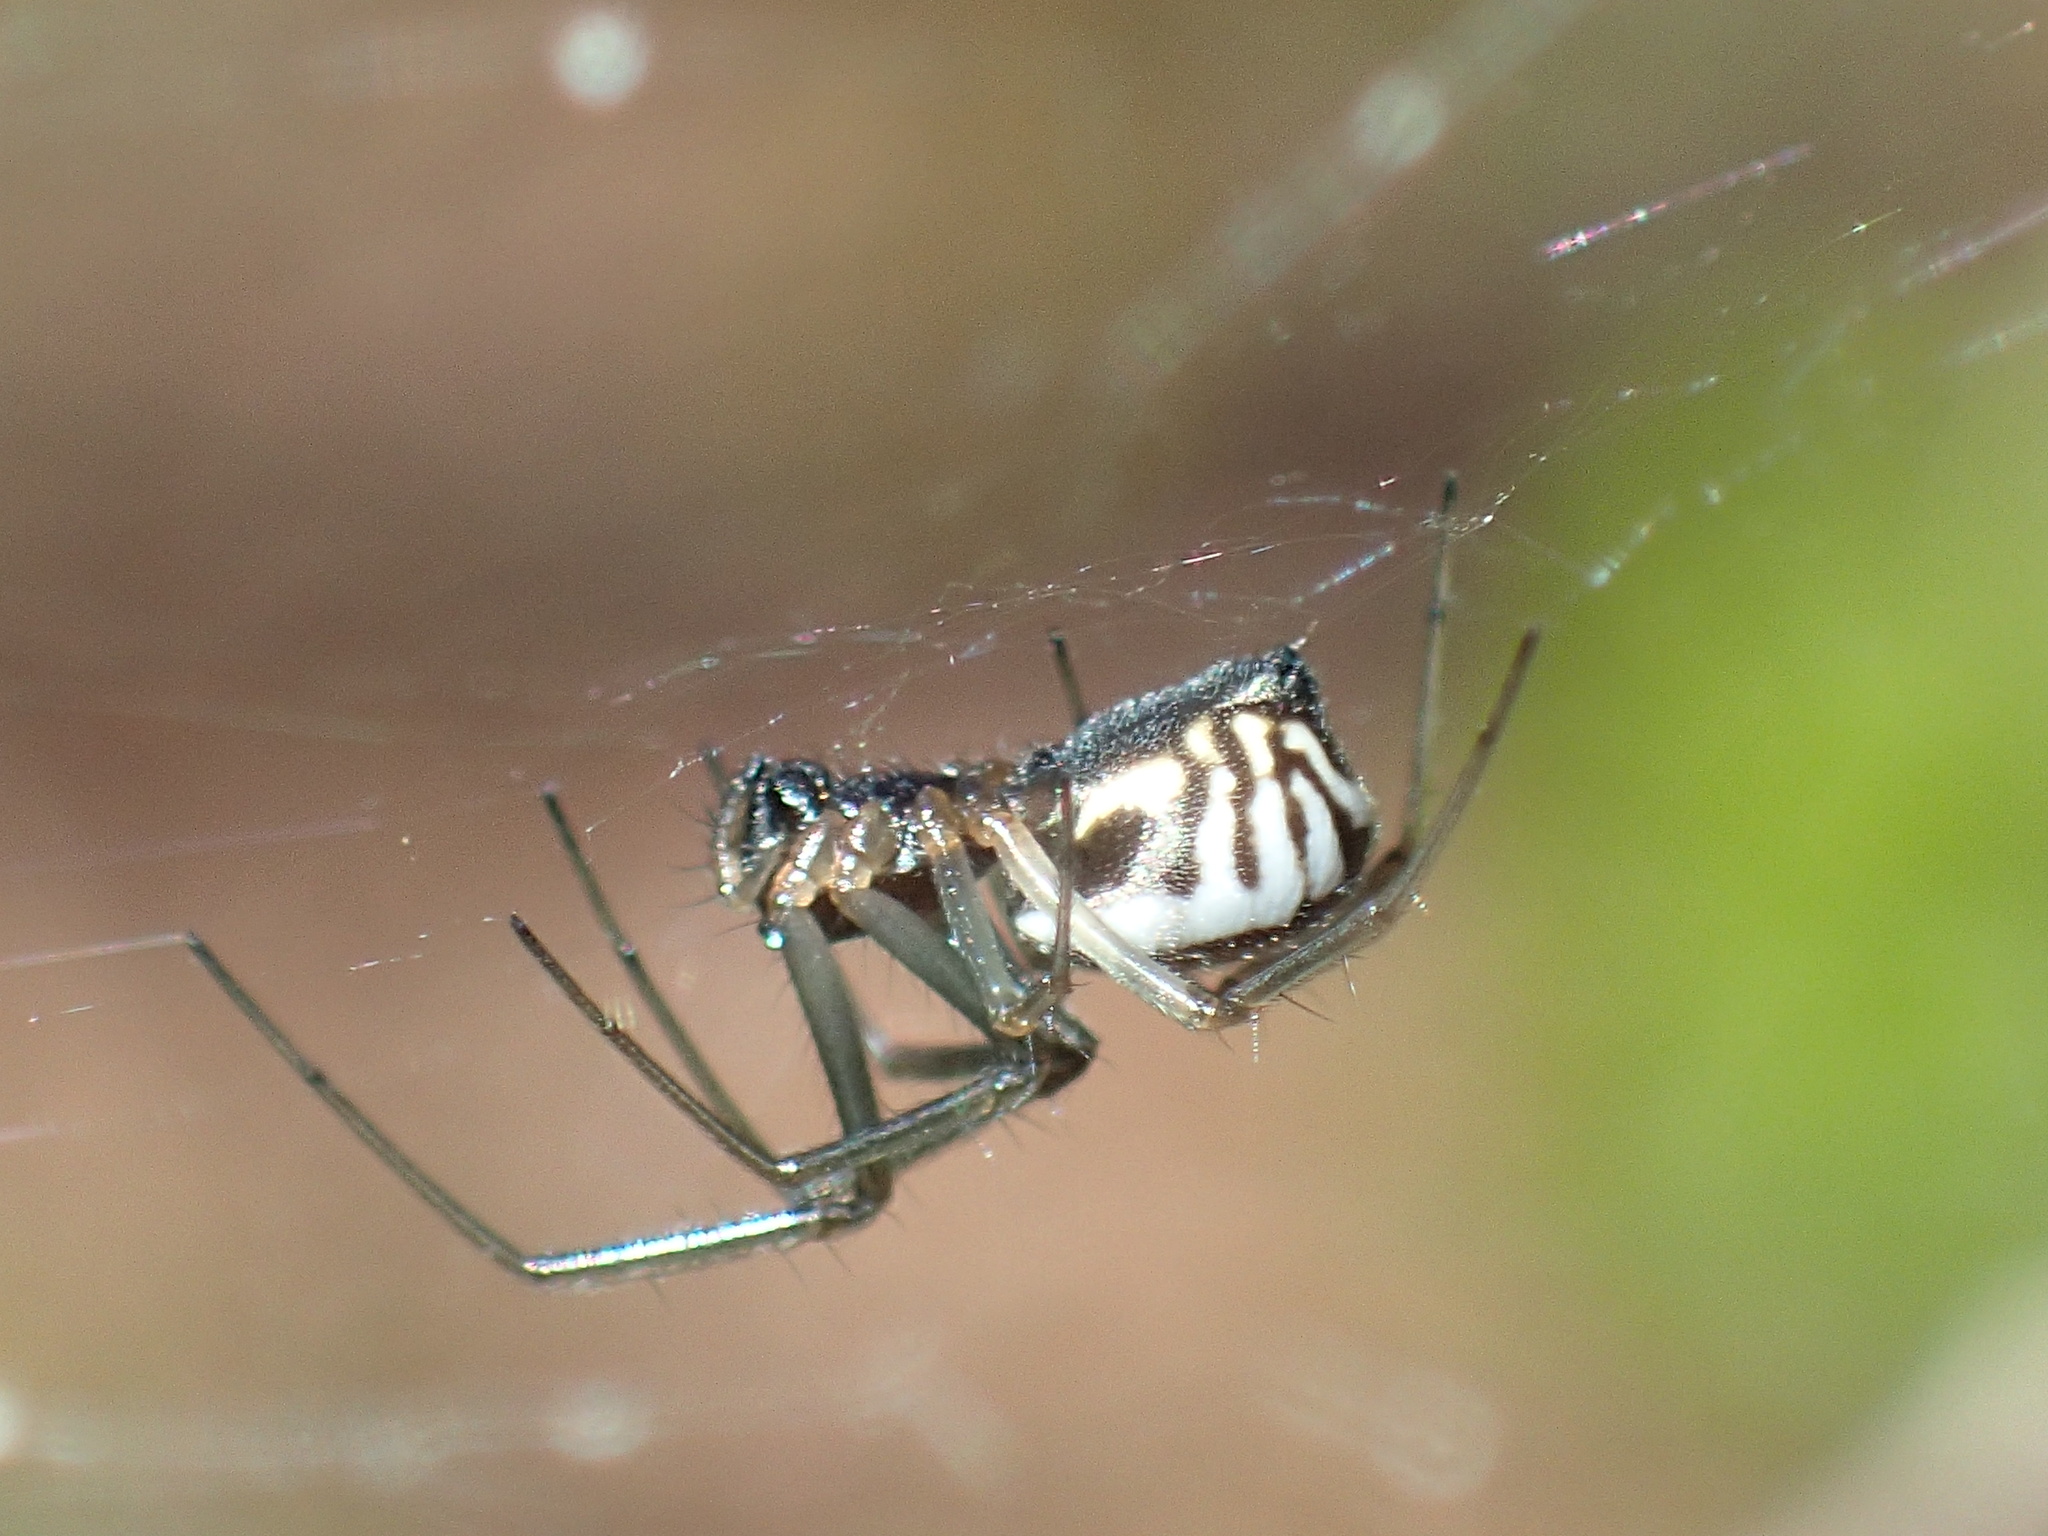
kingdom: Animalia
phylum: Arthropoda
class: Arachnida
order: Araneae
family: Linyphiidae
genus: Frontinella
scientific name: Frontinella pyramitela
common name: Bowl-and-doily spider
